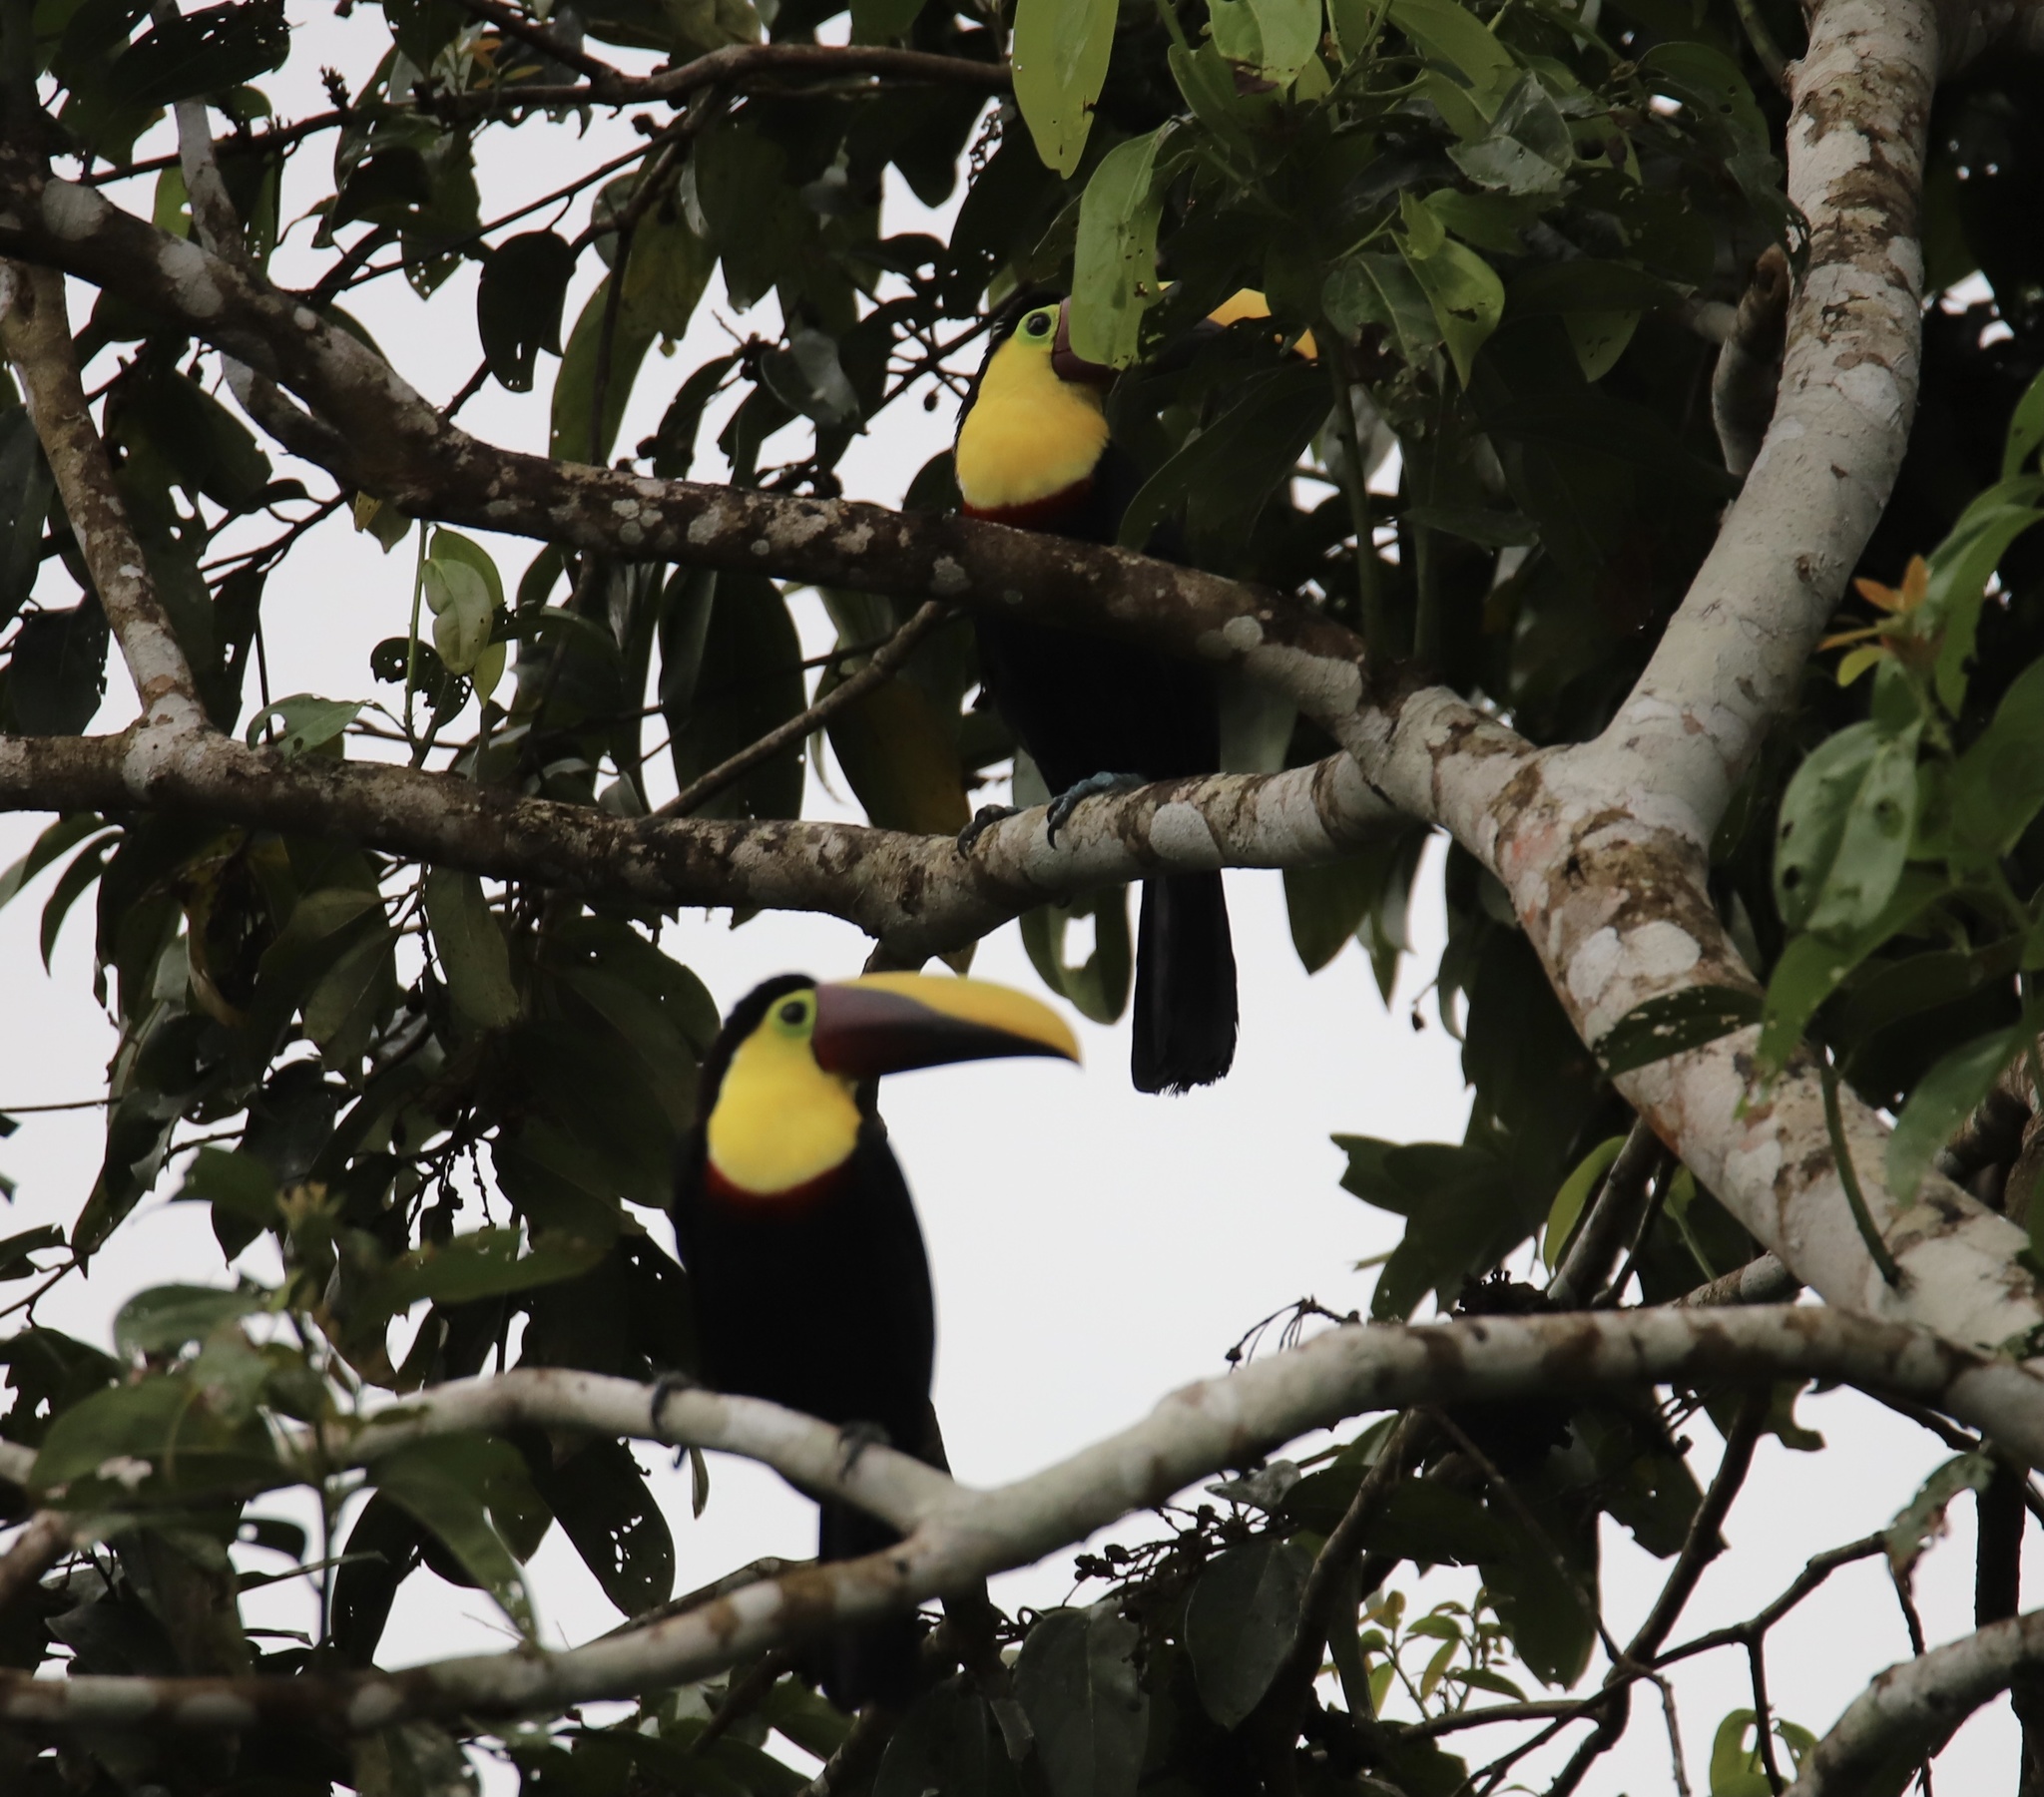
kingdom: Animalia
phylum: Chordata
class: Aves
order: Piciformes
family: Ramphastidae
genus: Ramphastos
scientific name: Ramphastos ambiguus
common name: Yellow-throated toucan
